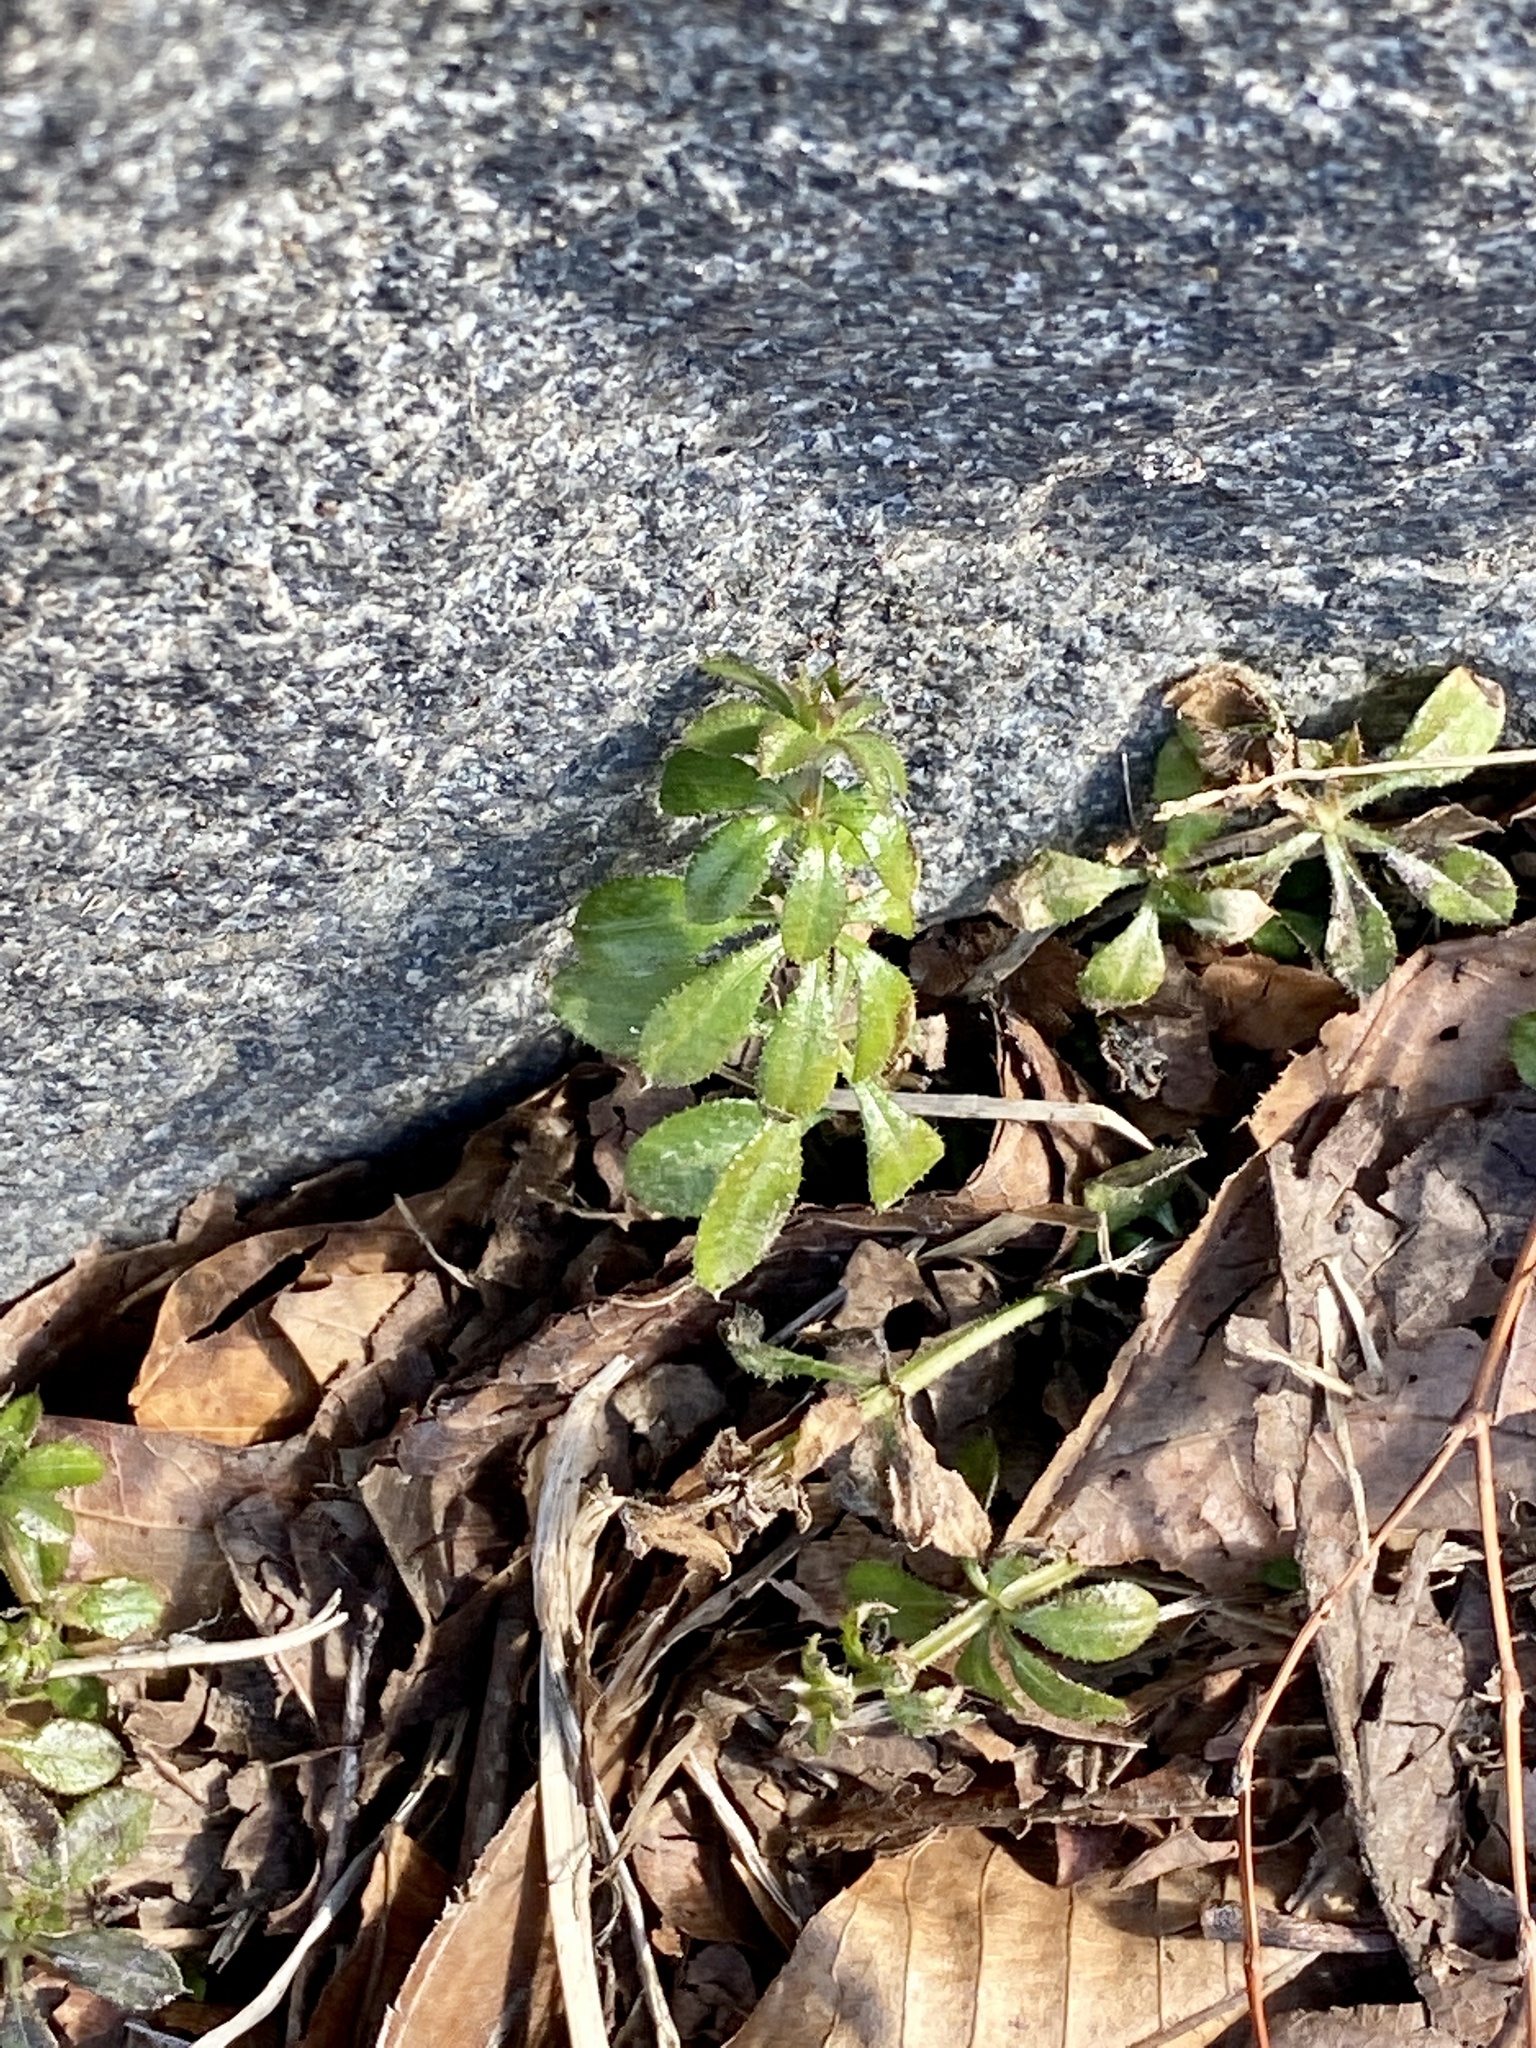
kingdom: Plantae
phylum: Tracheophyta
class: Magnoliopsida
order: Gentianales
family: Rubiaceae
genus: Galium
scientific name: Galium aparine
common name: Cleavers
